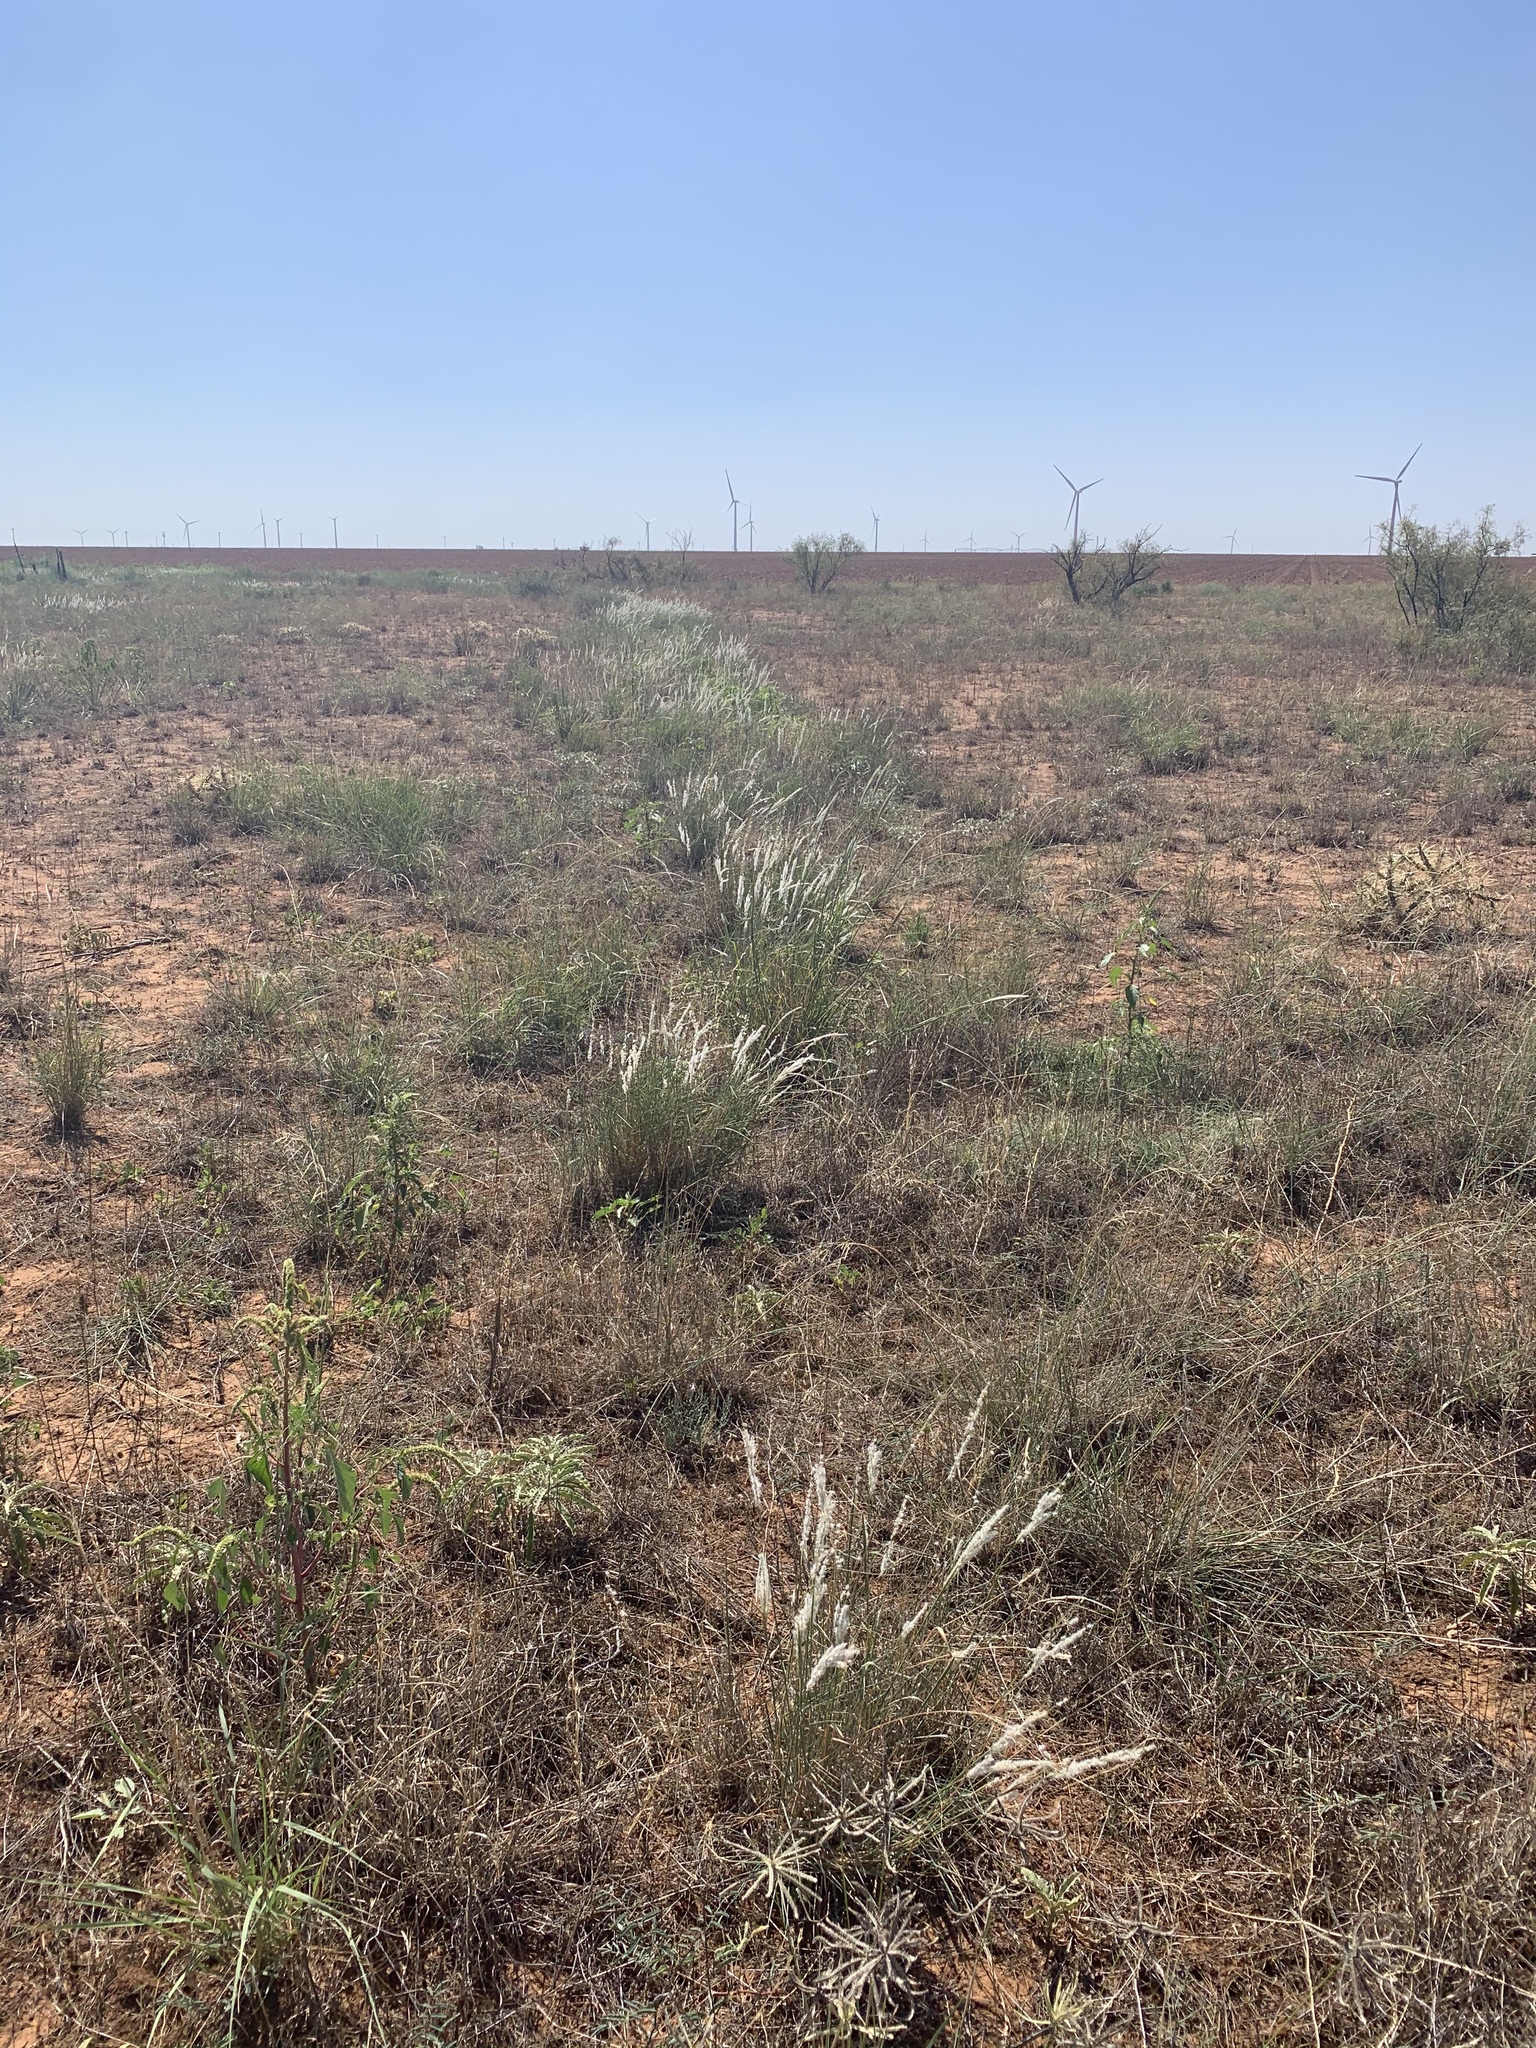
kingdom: Plantae
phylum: Tracheophyta
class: Liliopsida
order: Poales
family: Poaceae
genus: Digitaria
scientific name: Digitaria californica
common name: Arizona cottontop
